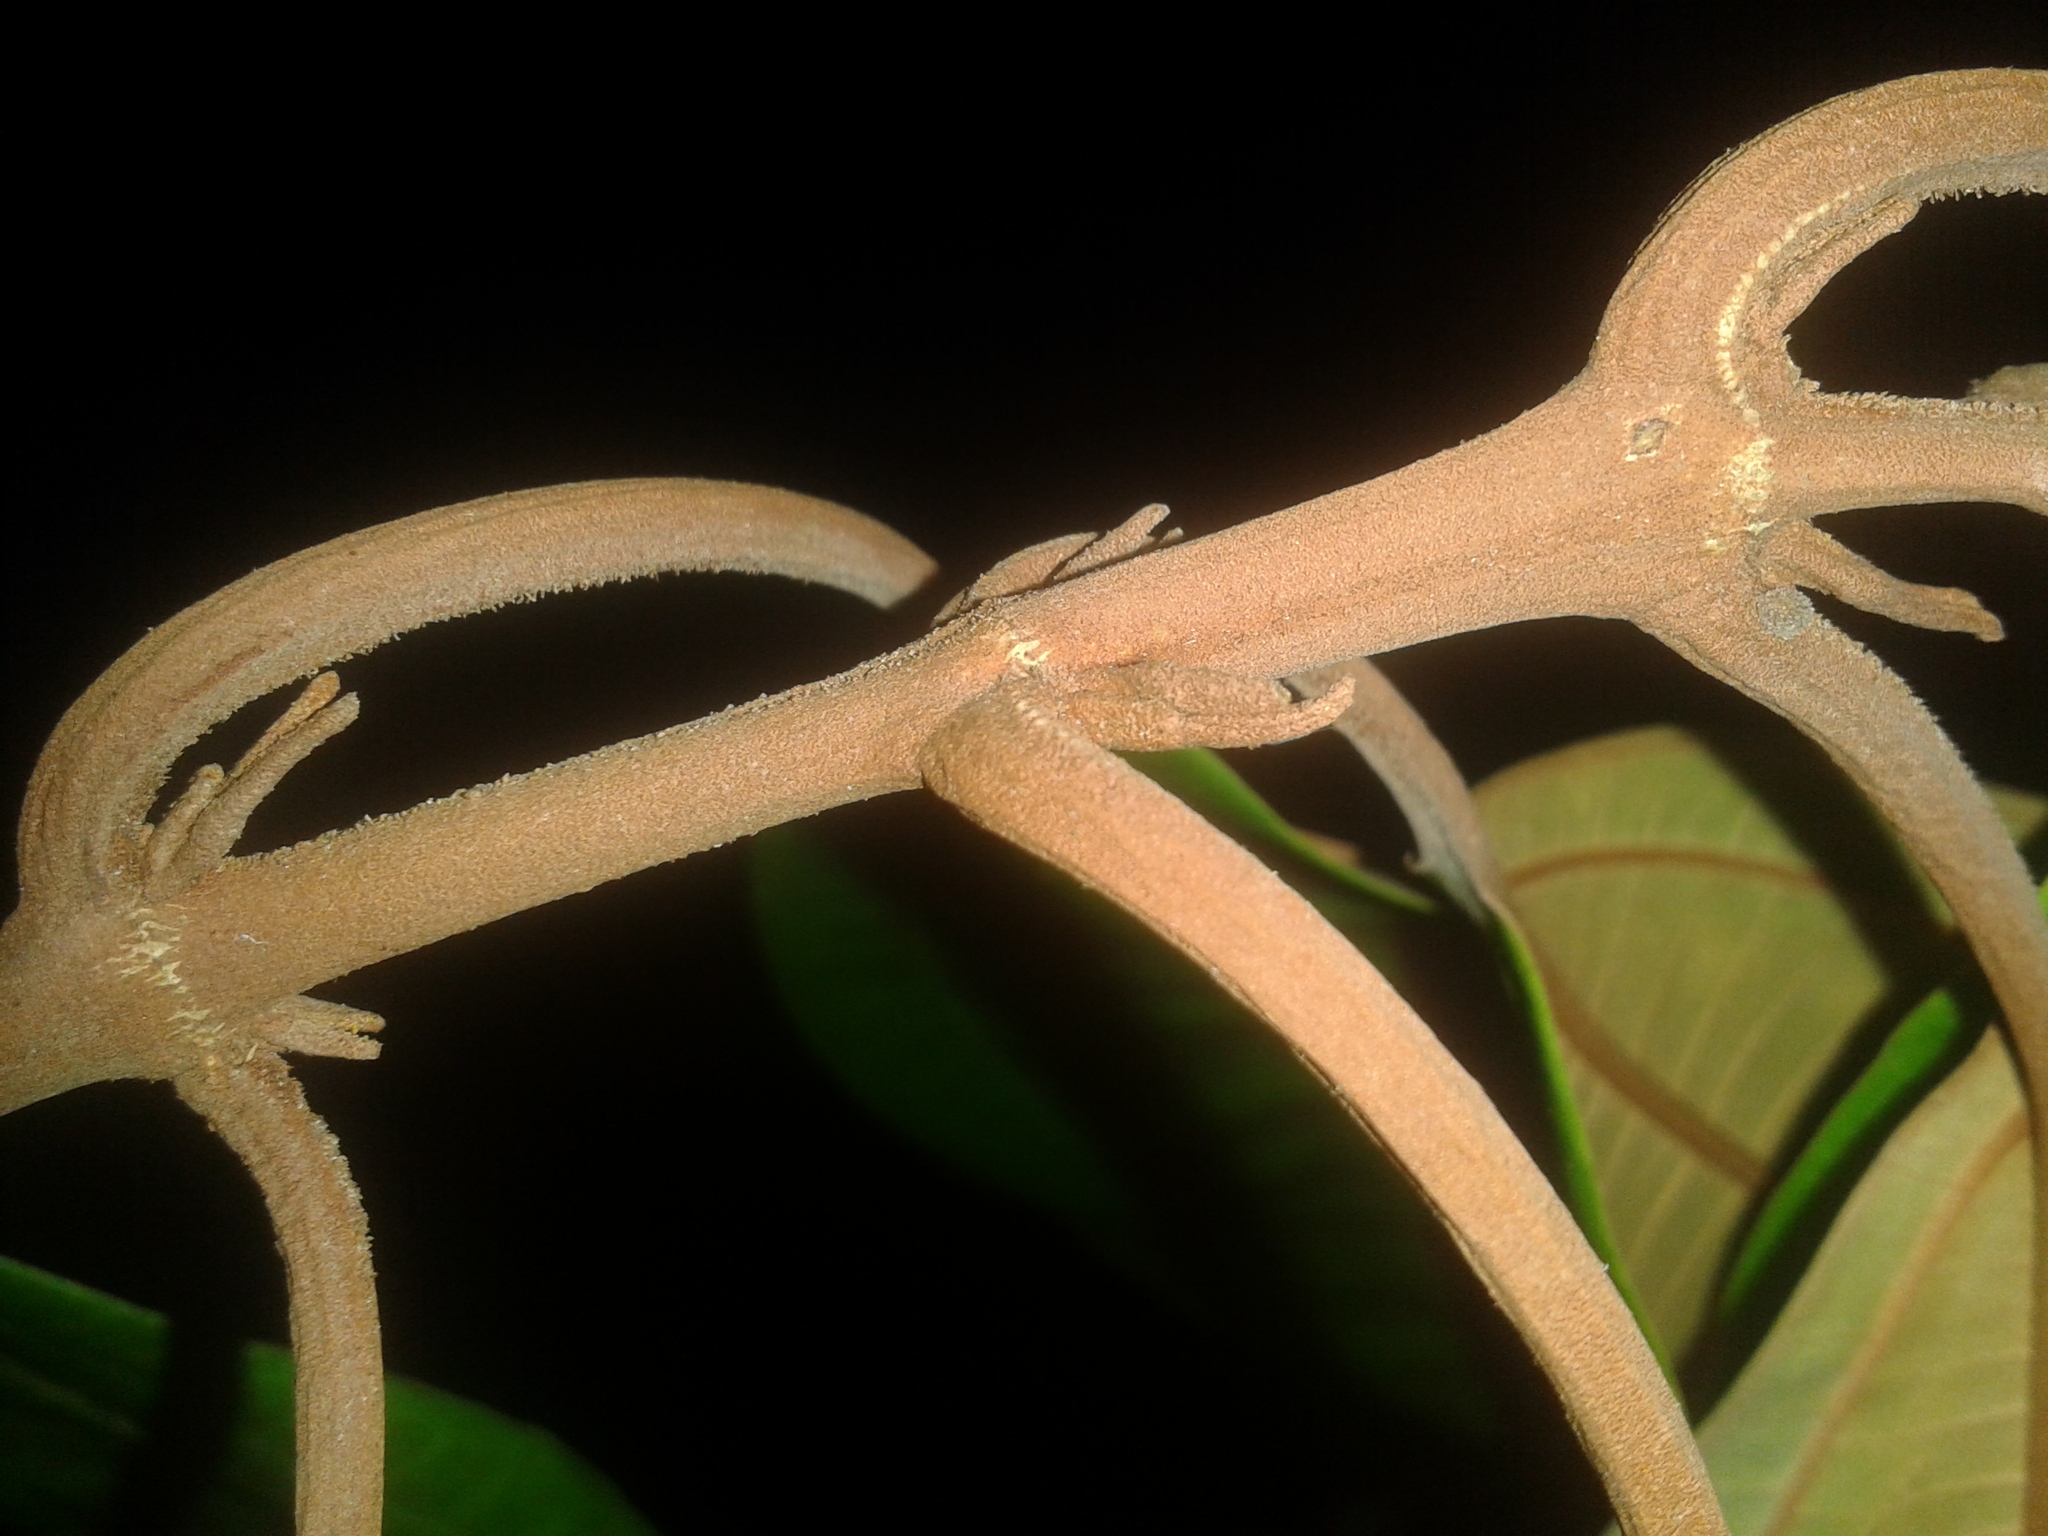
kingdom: Plantae
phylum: Tracheophyta
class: Magnoliopsida
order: Myrtales
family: Melastomataceae
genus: Miconia
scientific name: Miconia osaensis
